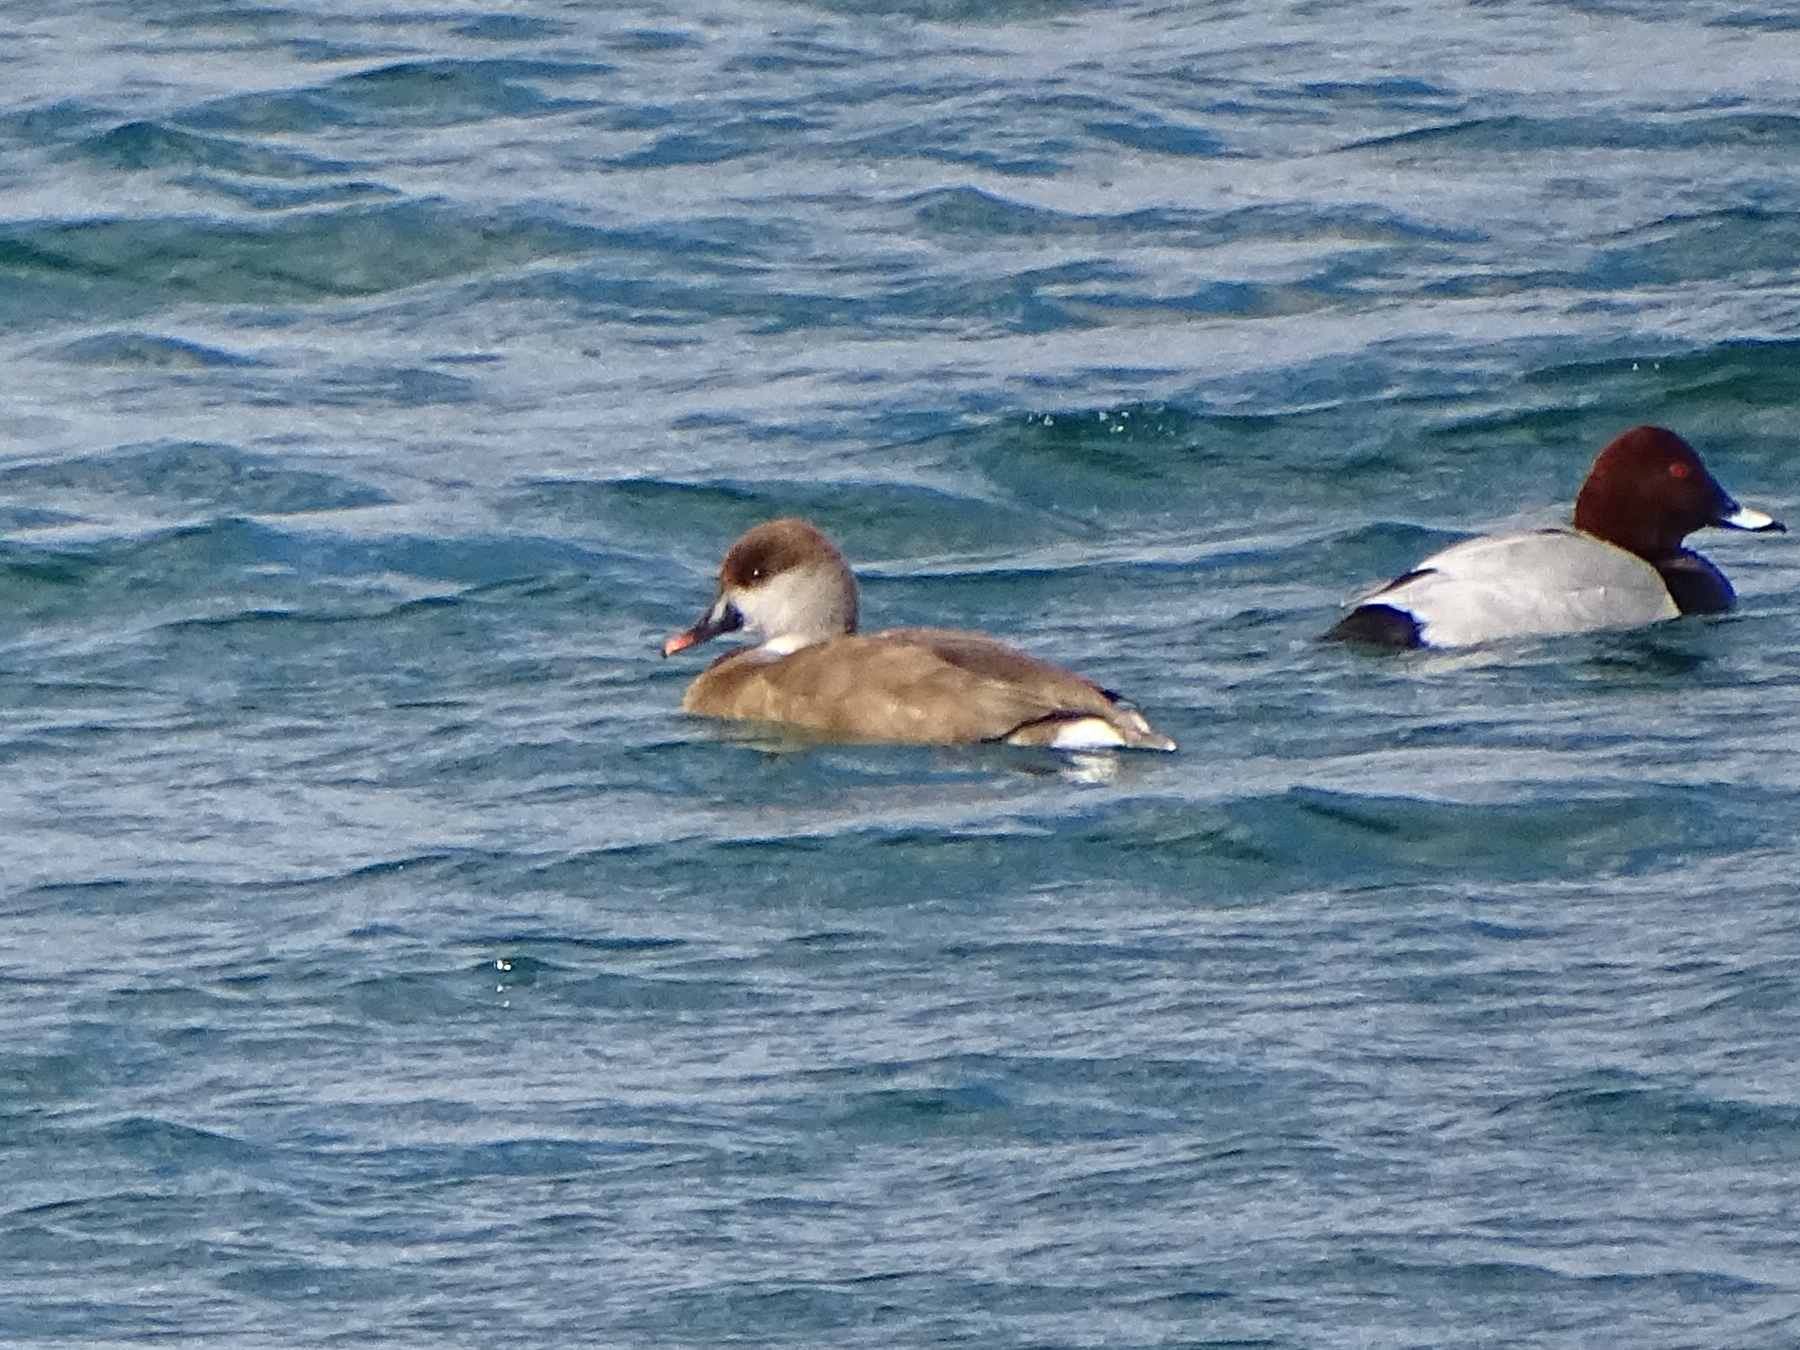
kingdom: Animalia
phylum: Chordata
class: Aves
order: Anseriformes
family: Anatidae
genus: Netta
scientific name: Netta rufina
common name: Red-crested pochard
